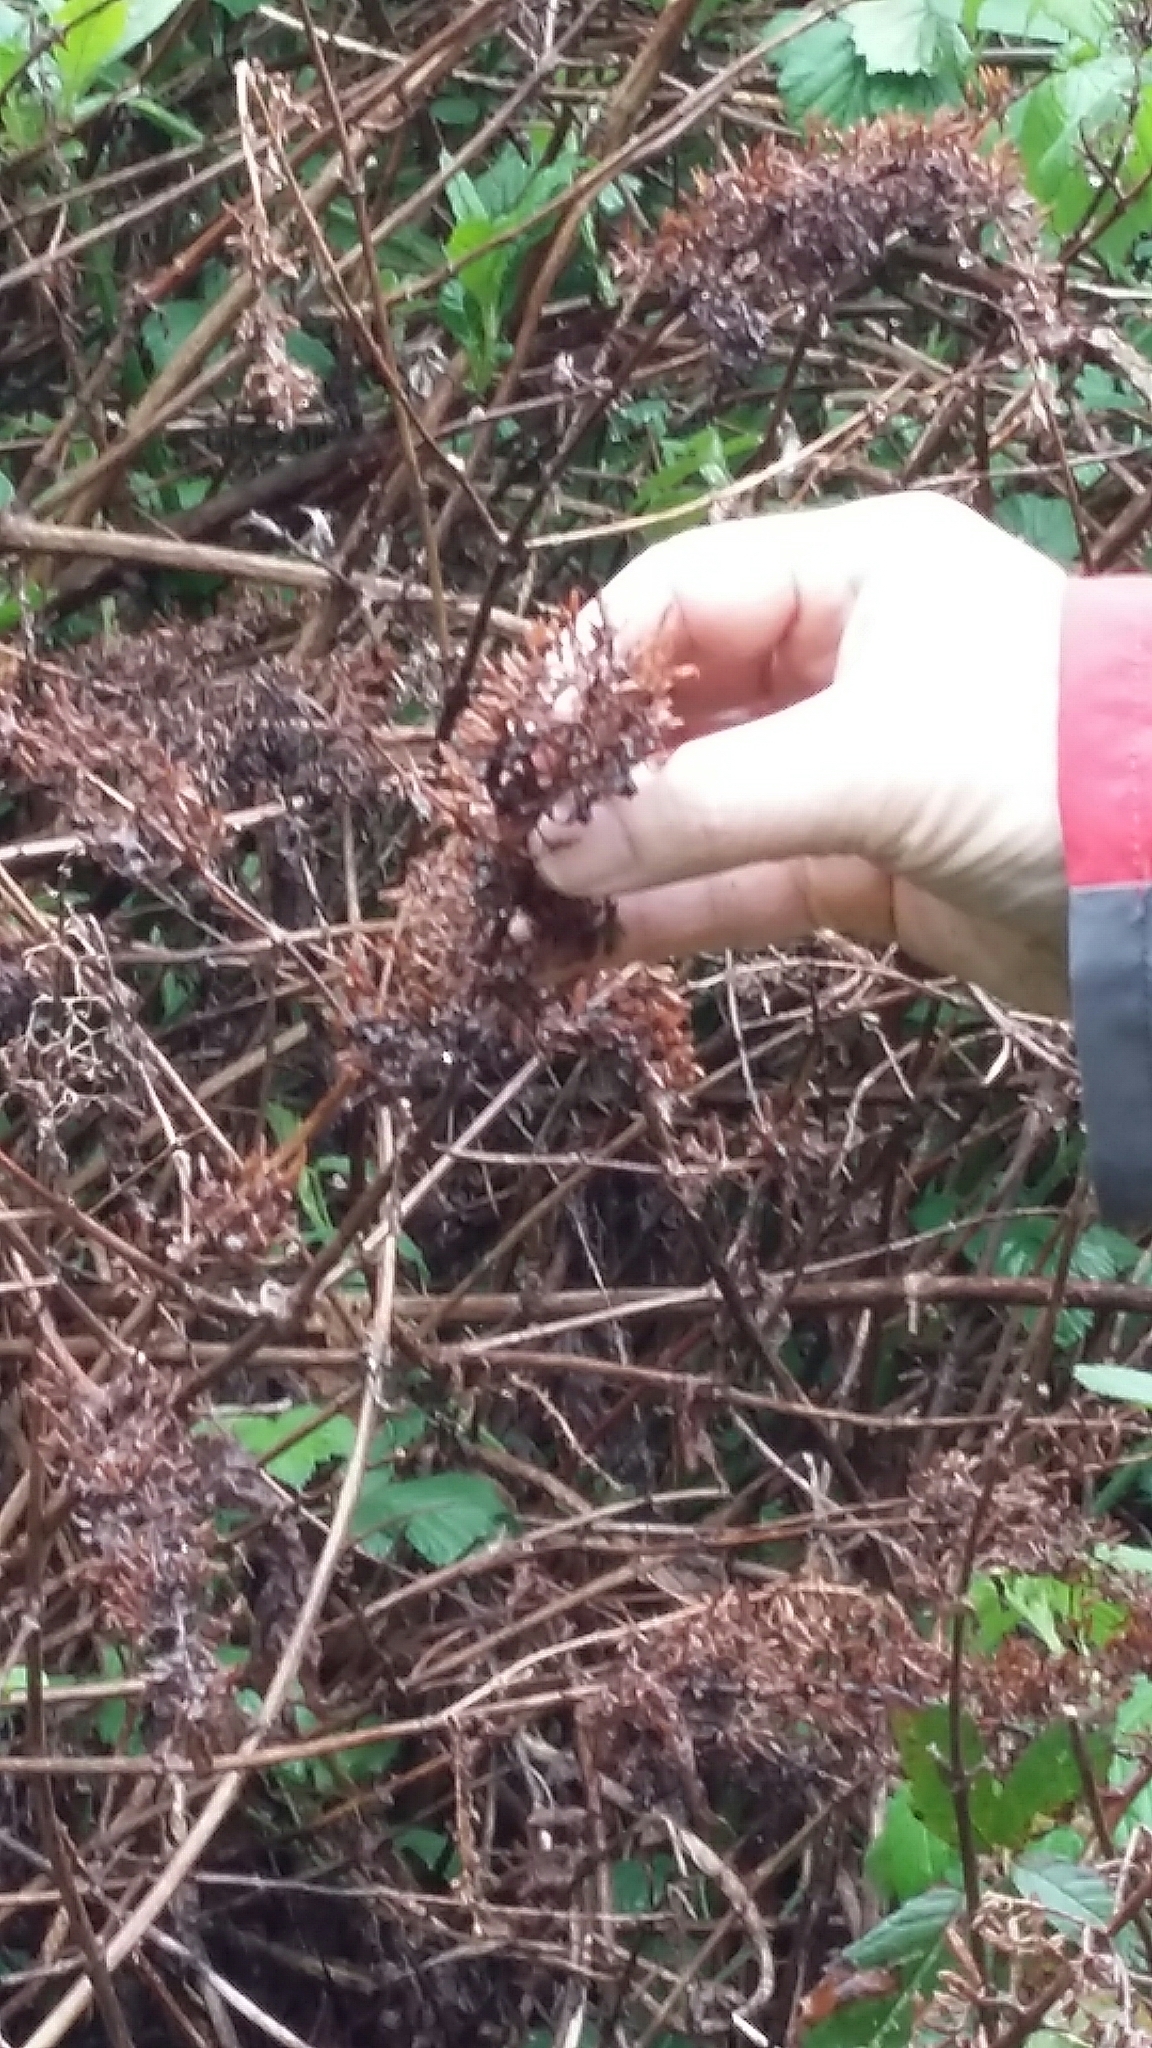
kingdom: Plantae
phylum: Tracheophyta
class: Magnoliopsida
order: Lamiales
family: Scrophulariaceae
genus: Buddleja
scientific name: Buddleja davidii
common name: Butterfly-bush
